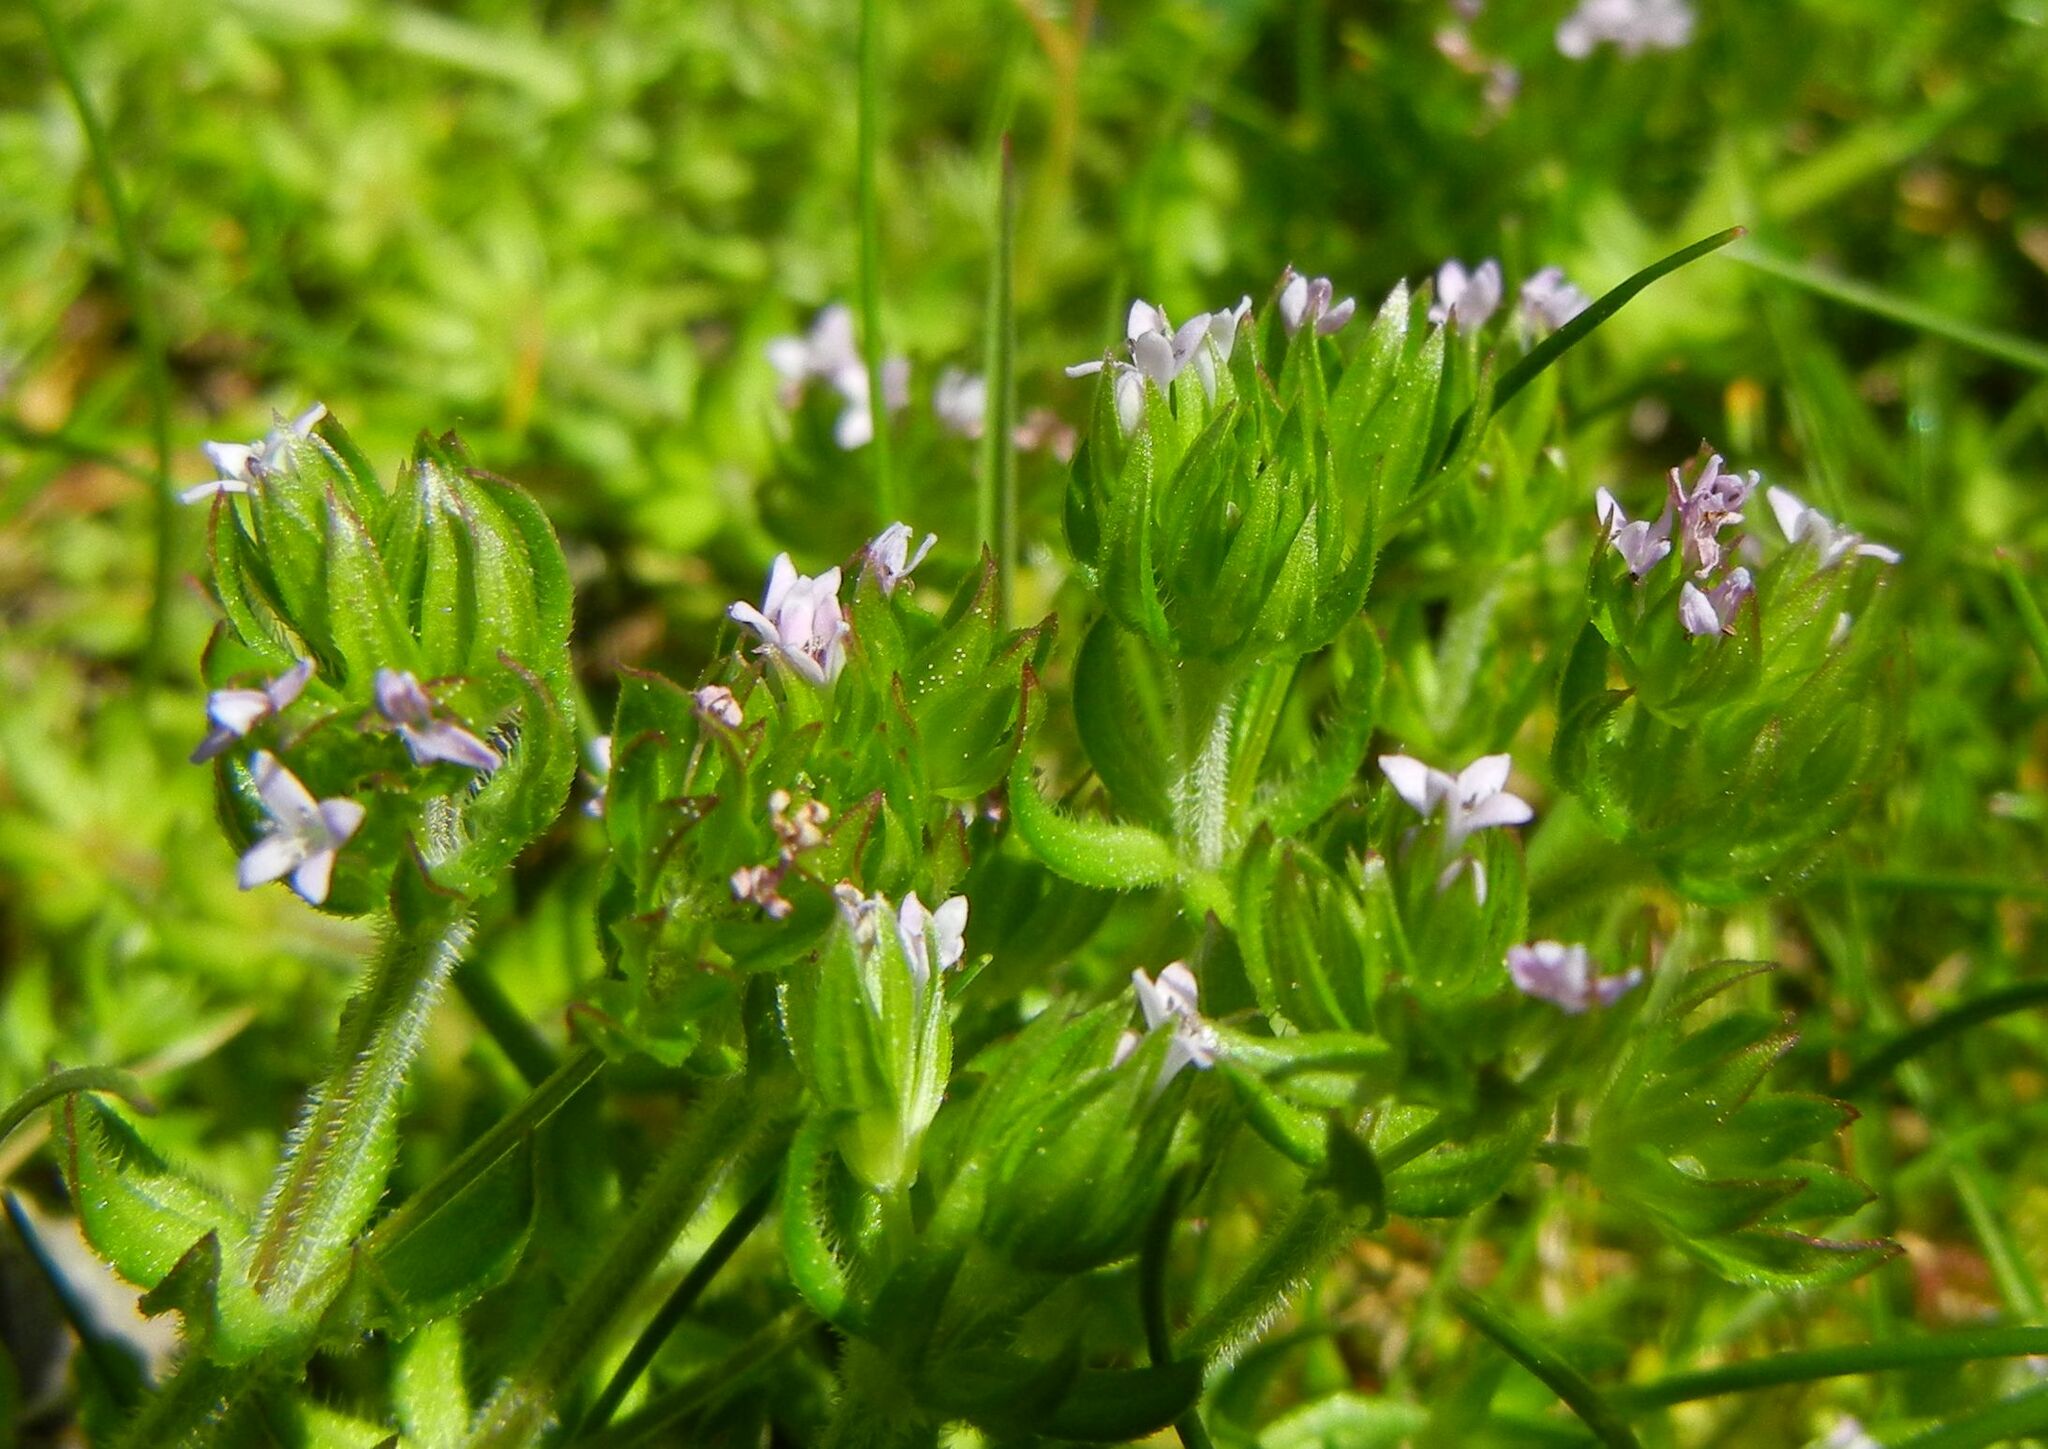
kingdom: Plantae
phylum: Tracheophyta
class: Magnoliopsida
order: Gentianales
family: Rubiaceae
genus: Sherardia
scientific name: Sherardia arvensis
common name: Field madder
